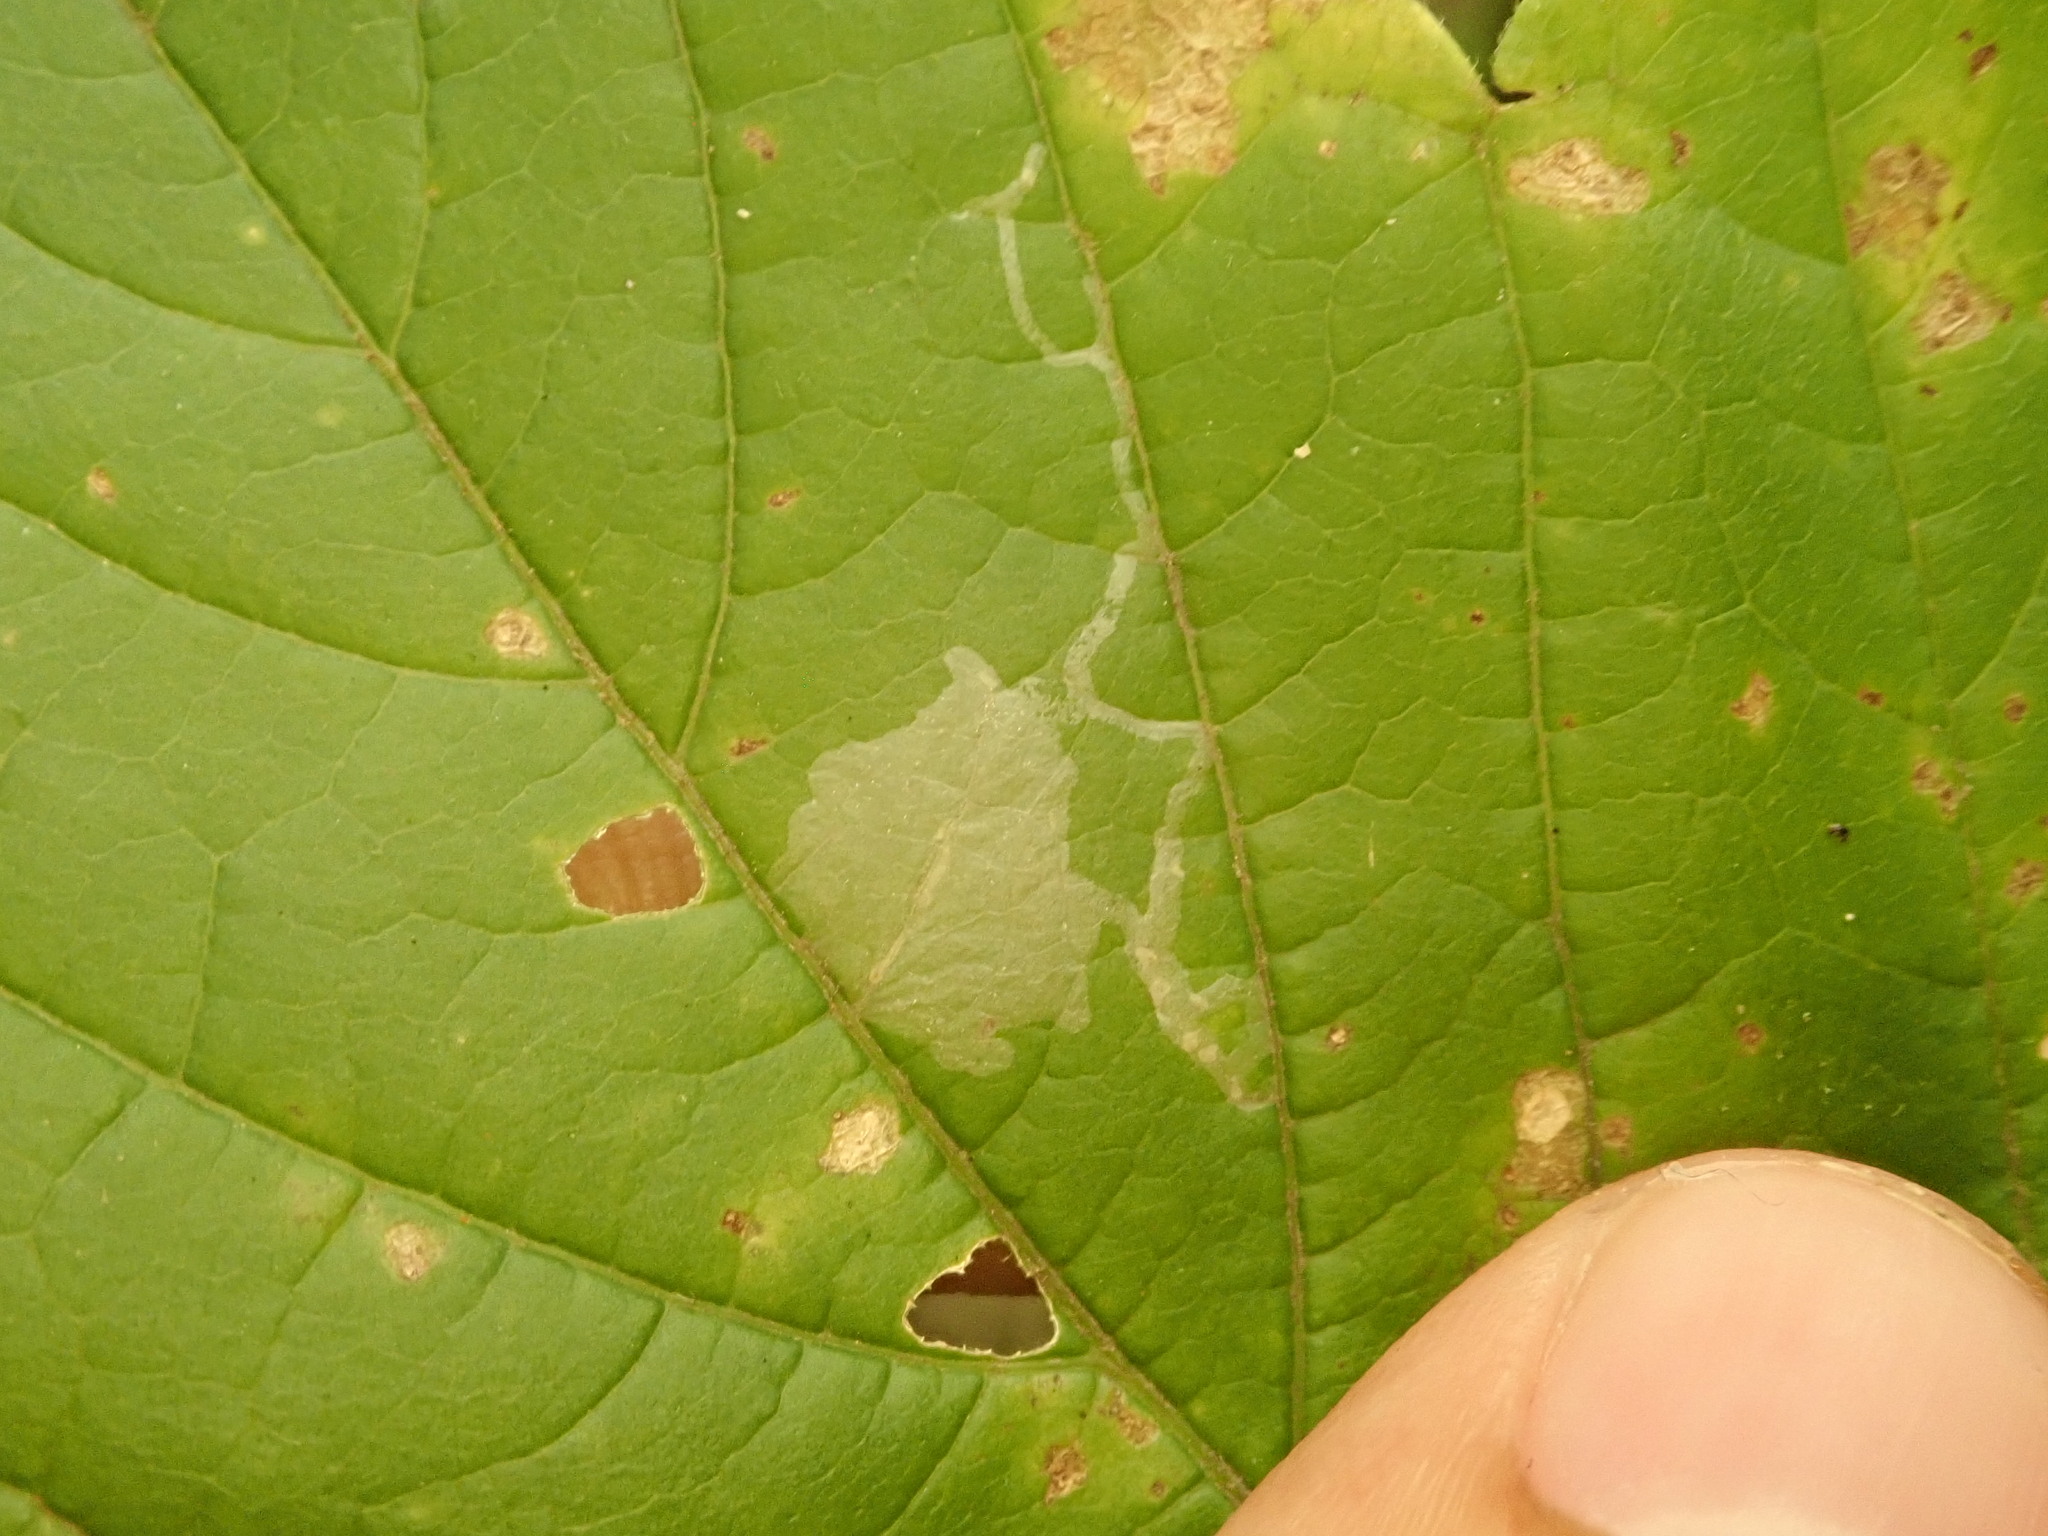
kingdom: Animalia
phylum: Arthropoda
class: Insecta
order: Lepidoptera
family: Gracillariidae
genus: Caloptilia
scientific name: Caloptilia negundella
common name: Leafminer
